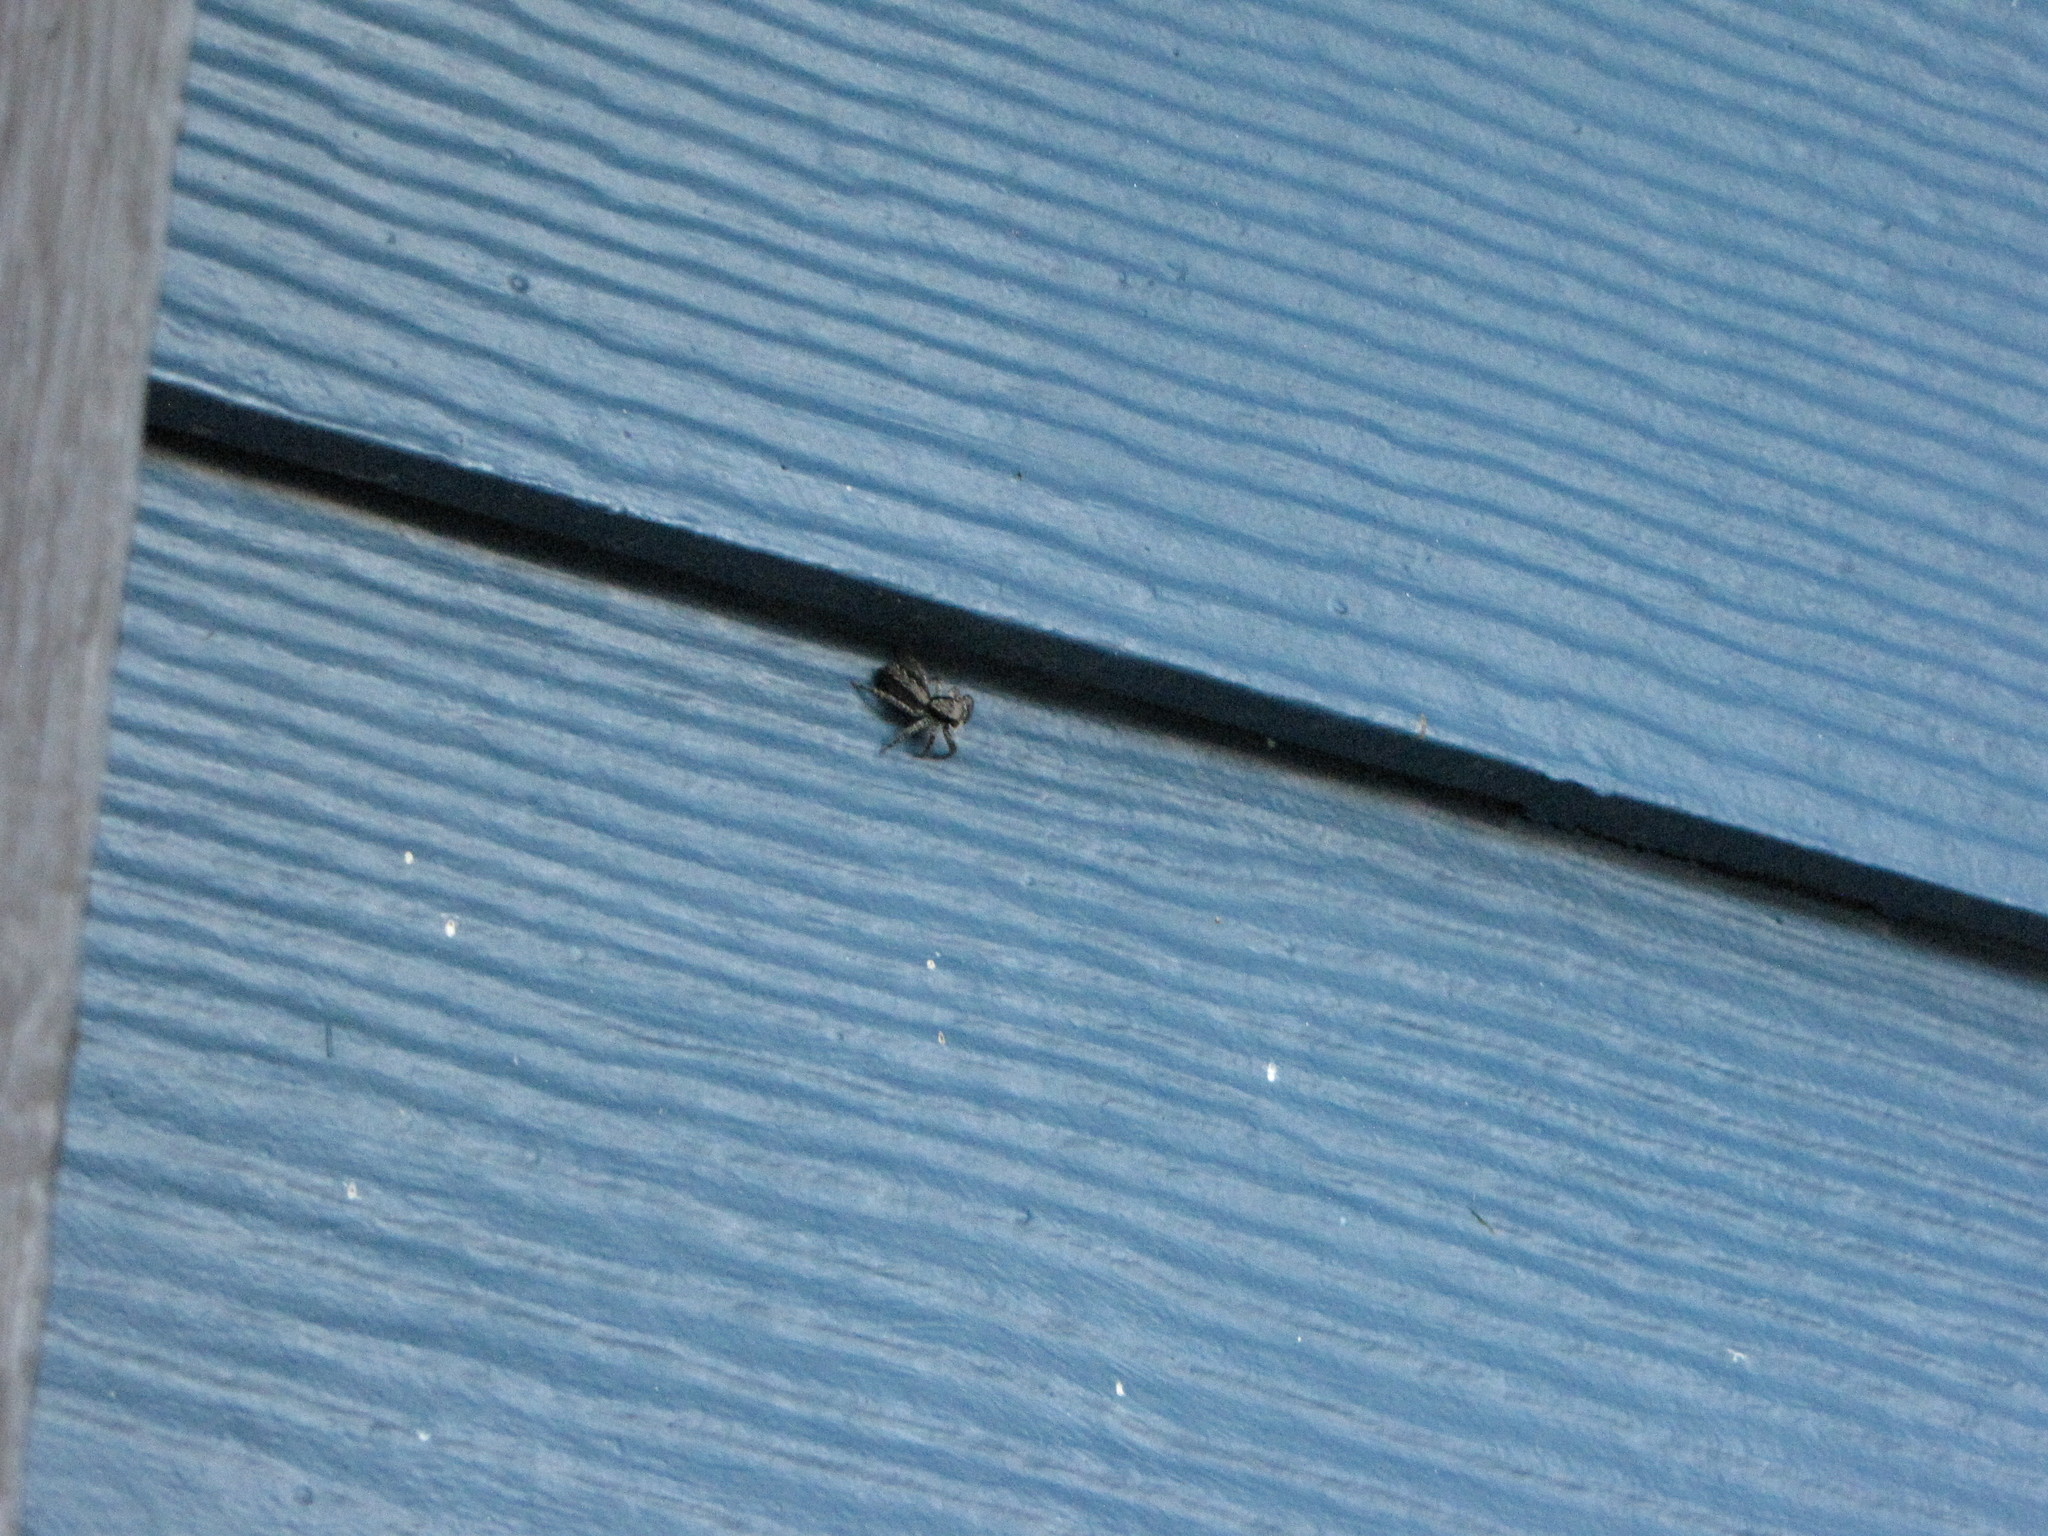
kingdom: Animalia
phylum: Arthropoda
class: Arachnida
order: Araneae
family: Salticidae
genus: Platycryptus
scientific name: Platycryptus californicus
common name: Jumping spiders
